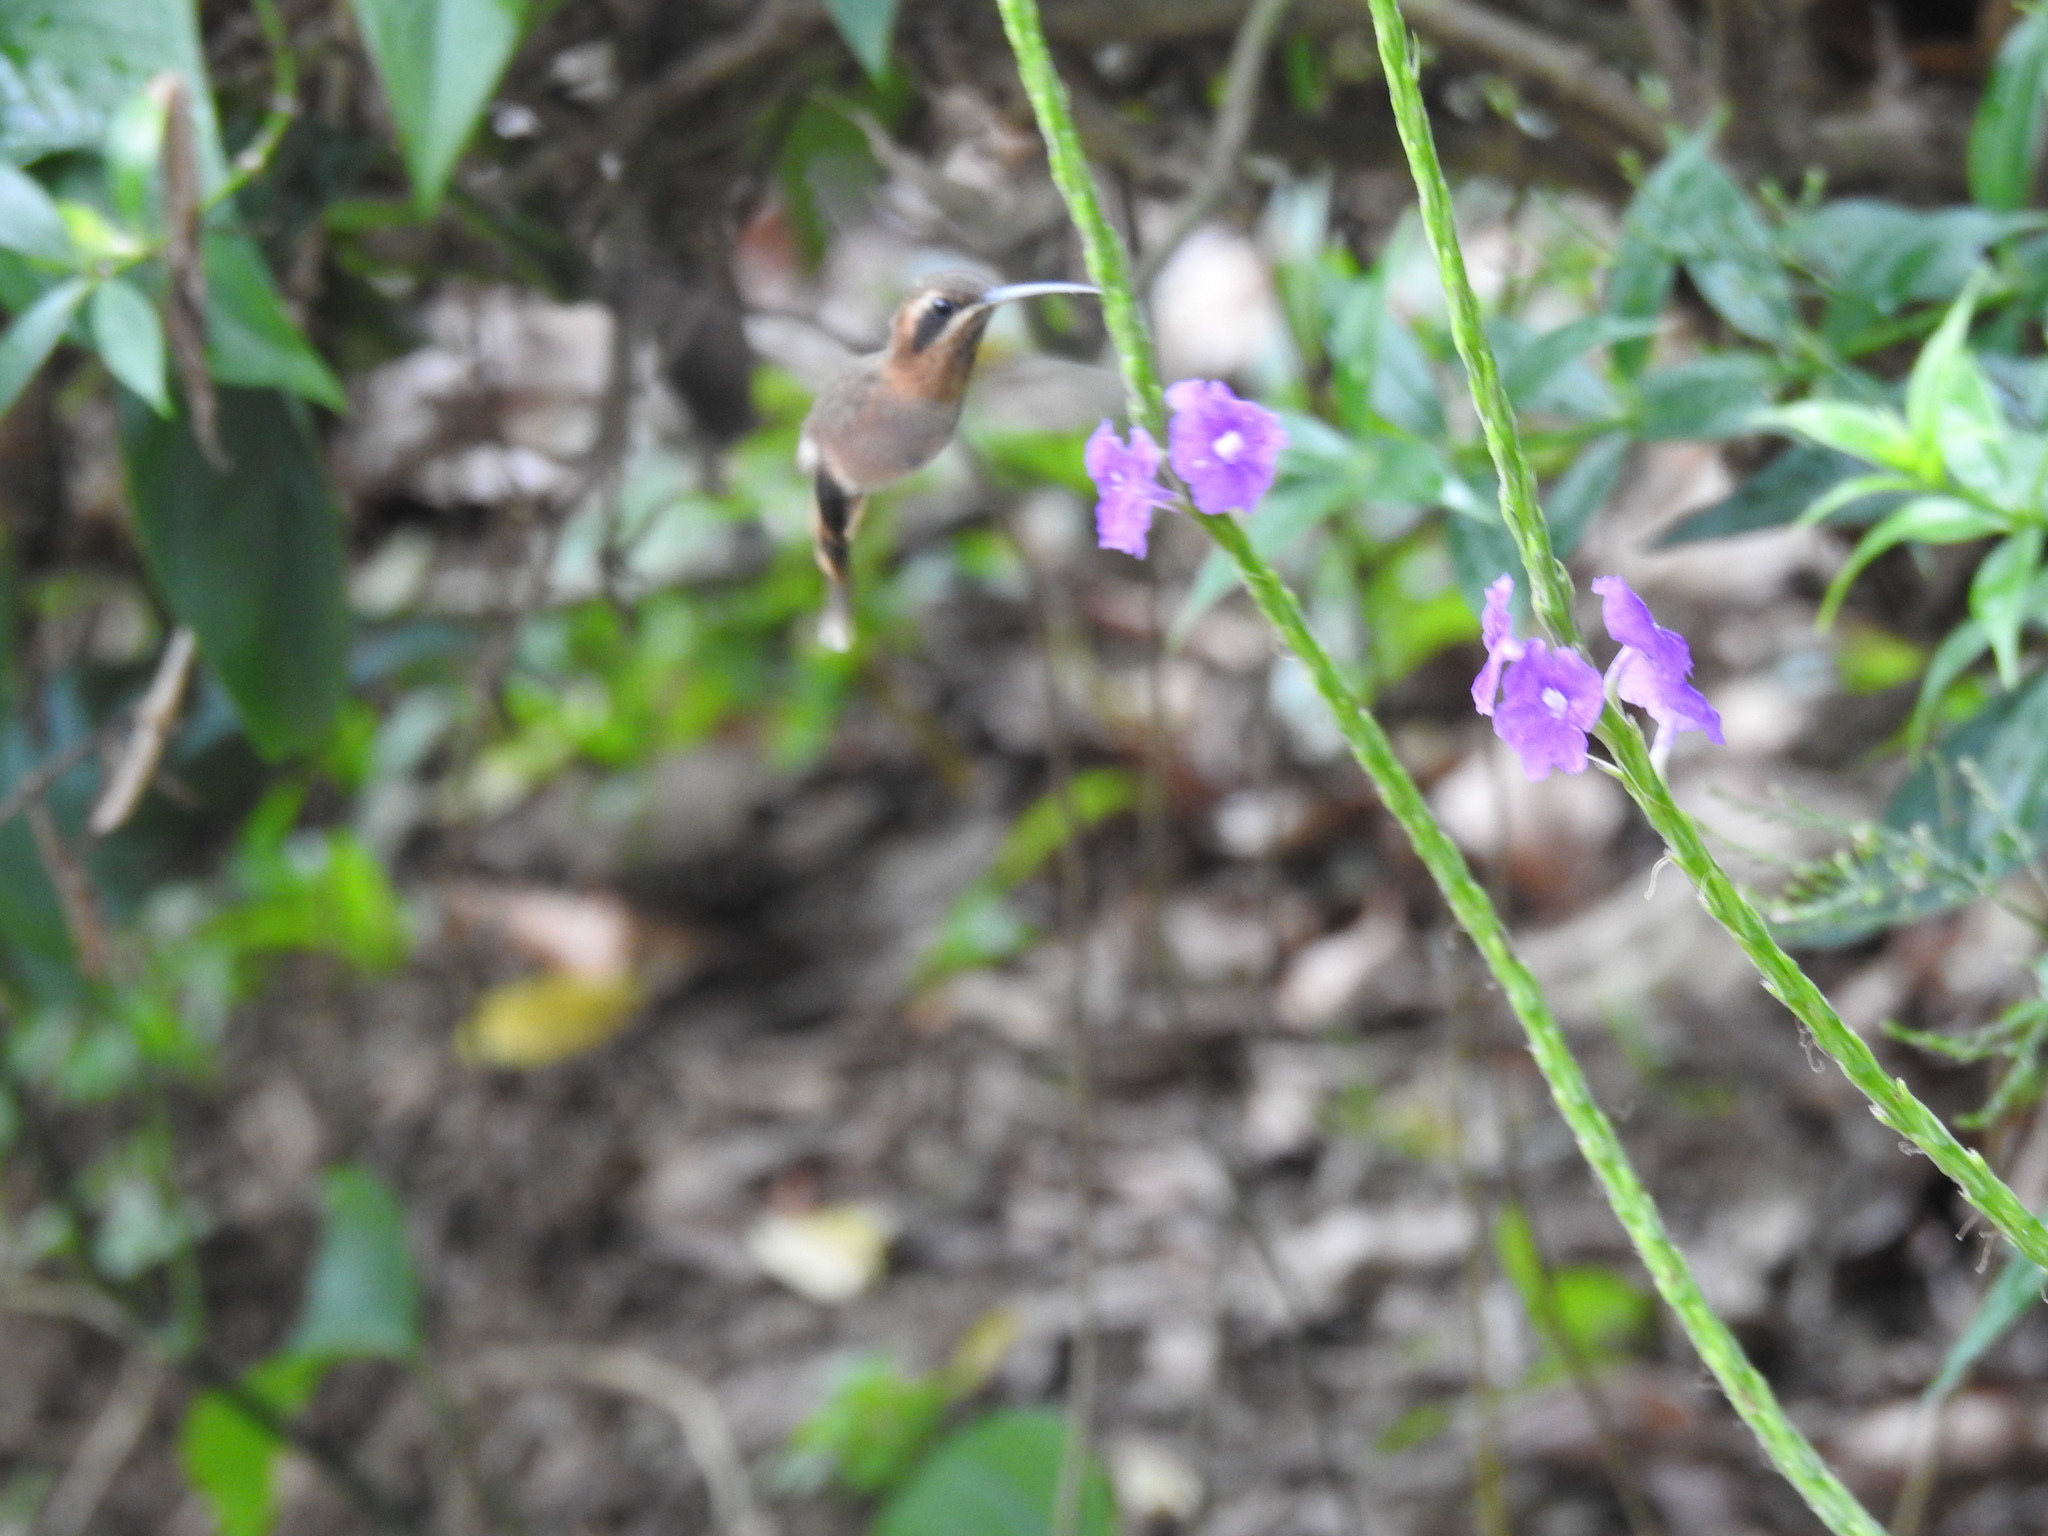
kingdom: Animalia
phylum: Chordata
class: Aves
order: Apodiformes
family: Trochilidae
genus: Phaethornis
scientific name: Phaethornis striigularis
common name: Stripe-throated hermit
